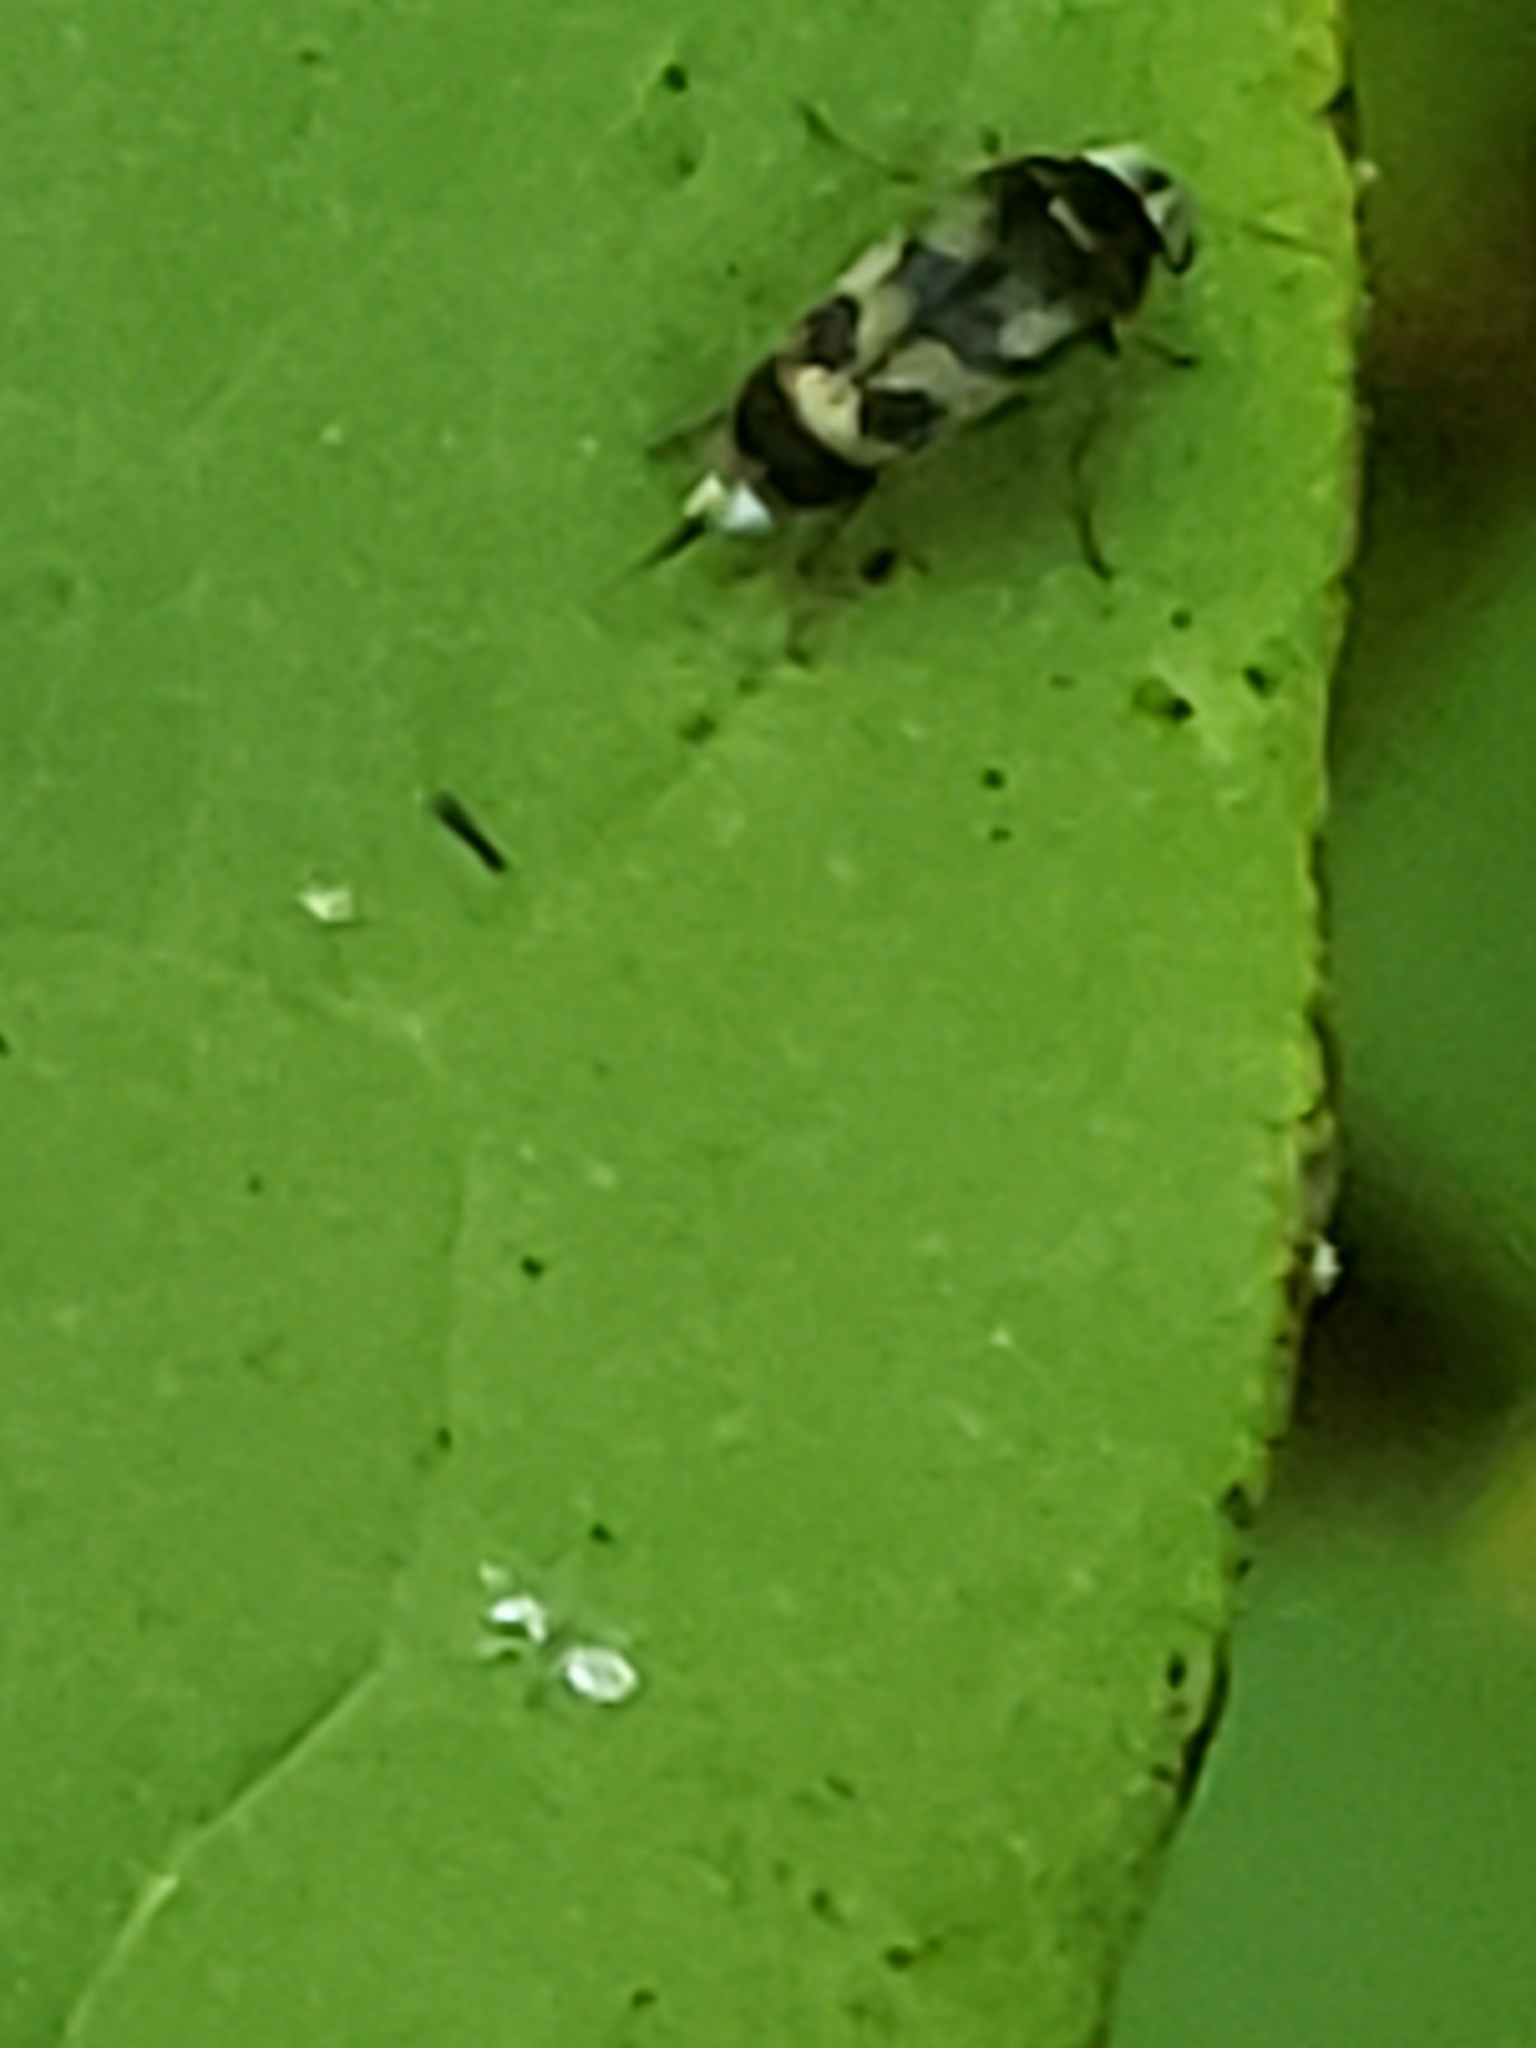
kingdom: Animalia
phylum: Arthropoda
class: Insecta
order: Coleoptera
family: Mordellidae
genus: Paramordellaria
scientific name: Paramordellaria triloba
